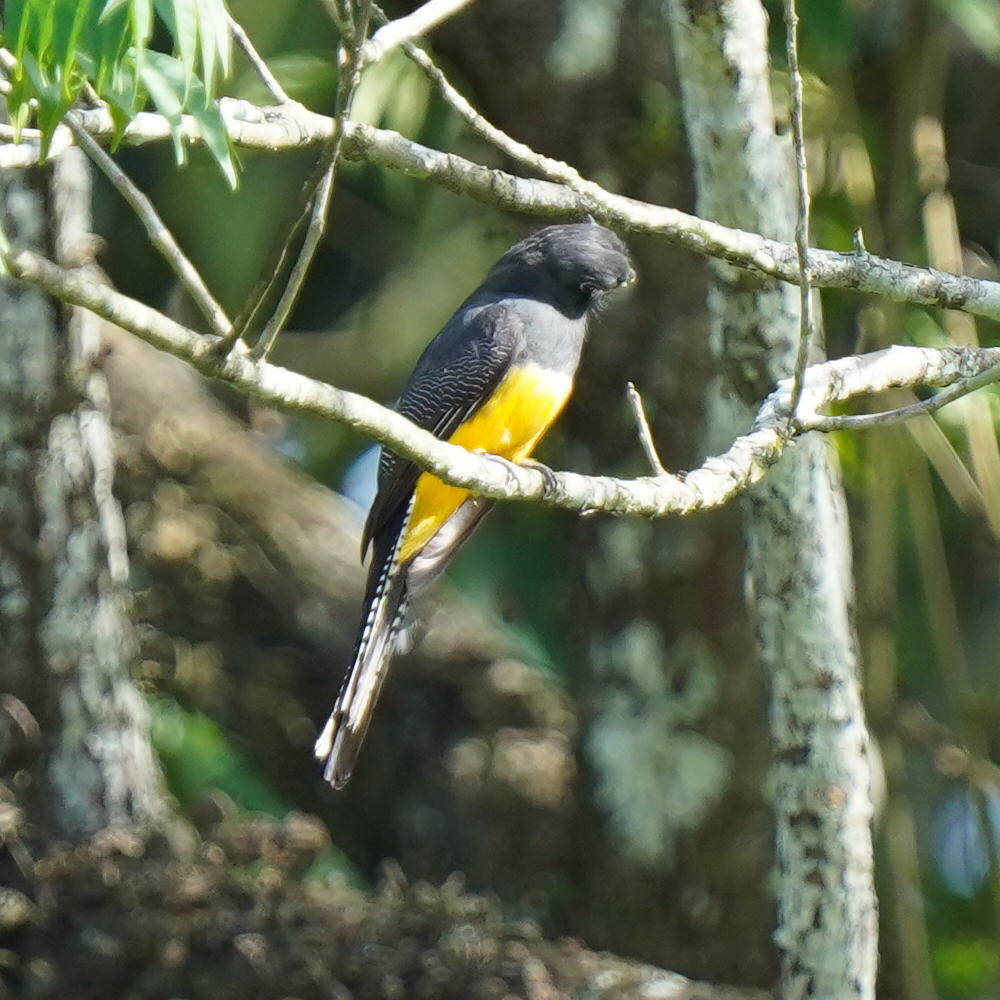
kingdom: Animalia
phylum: Chordata
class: Aves
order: Trogoniformes
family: Trogonidae
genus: Trogon
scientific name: Trogon caligatus
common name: Gartered trogon
